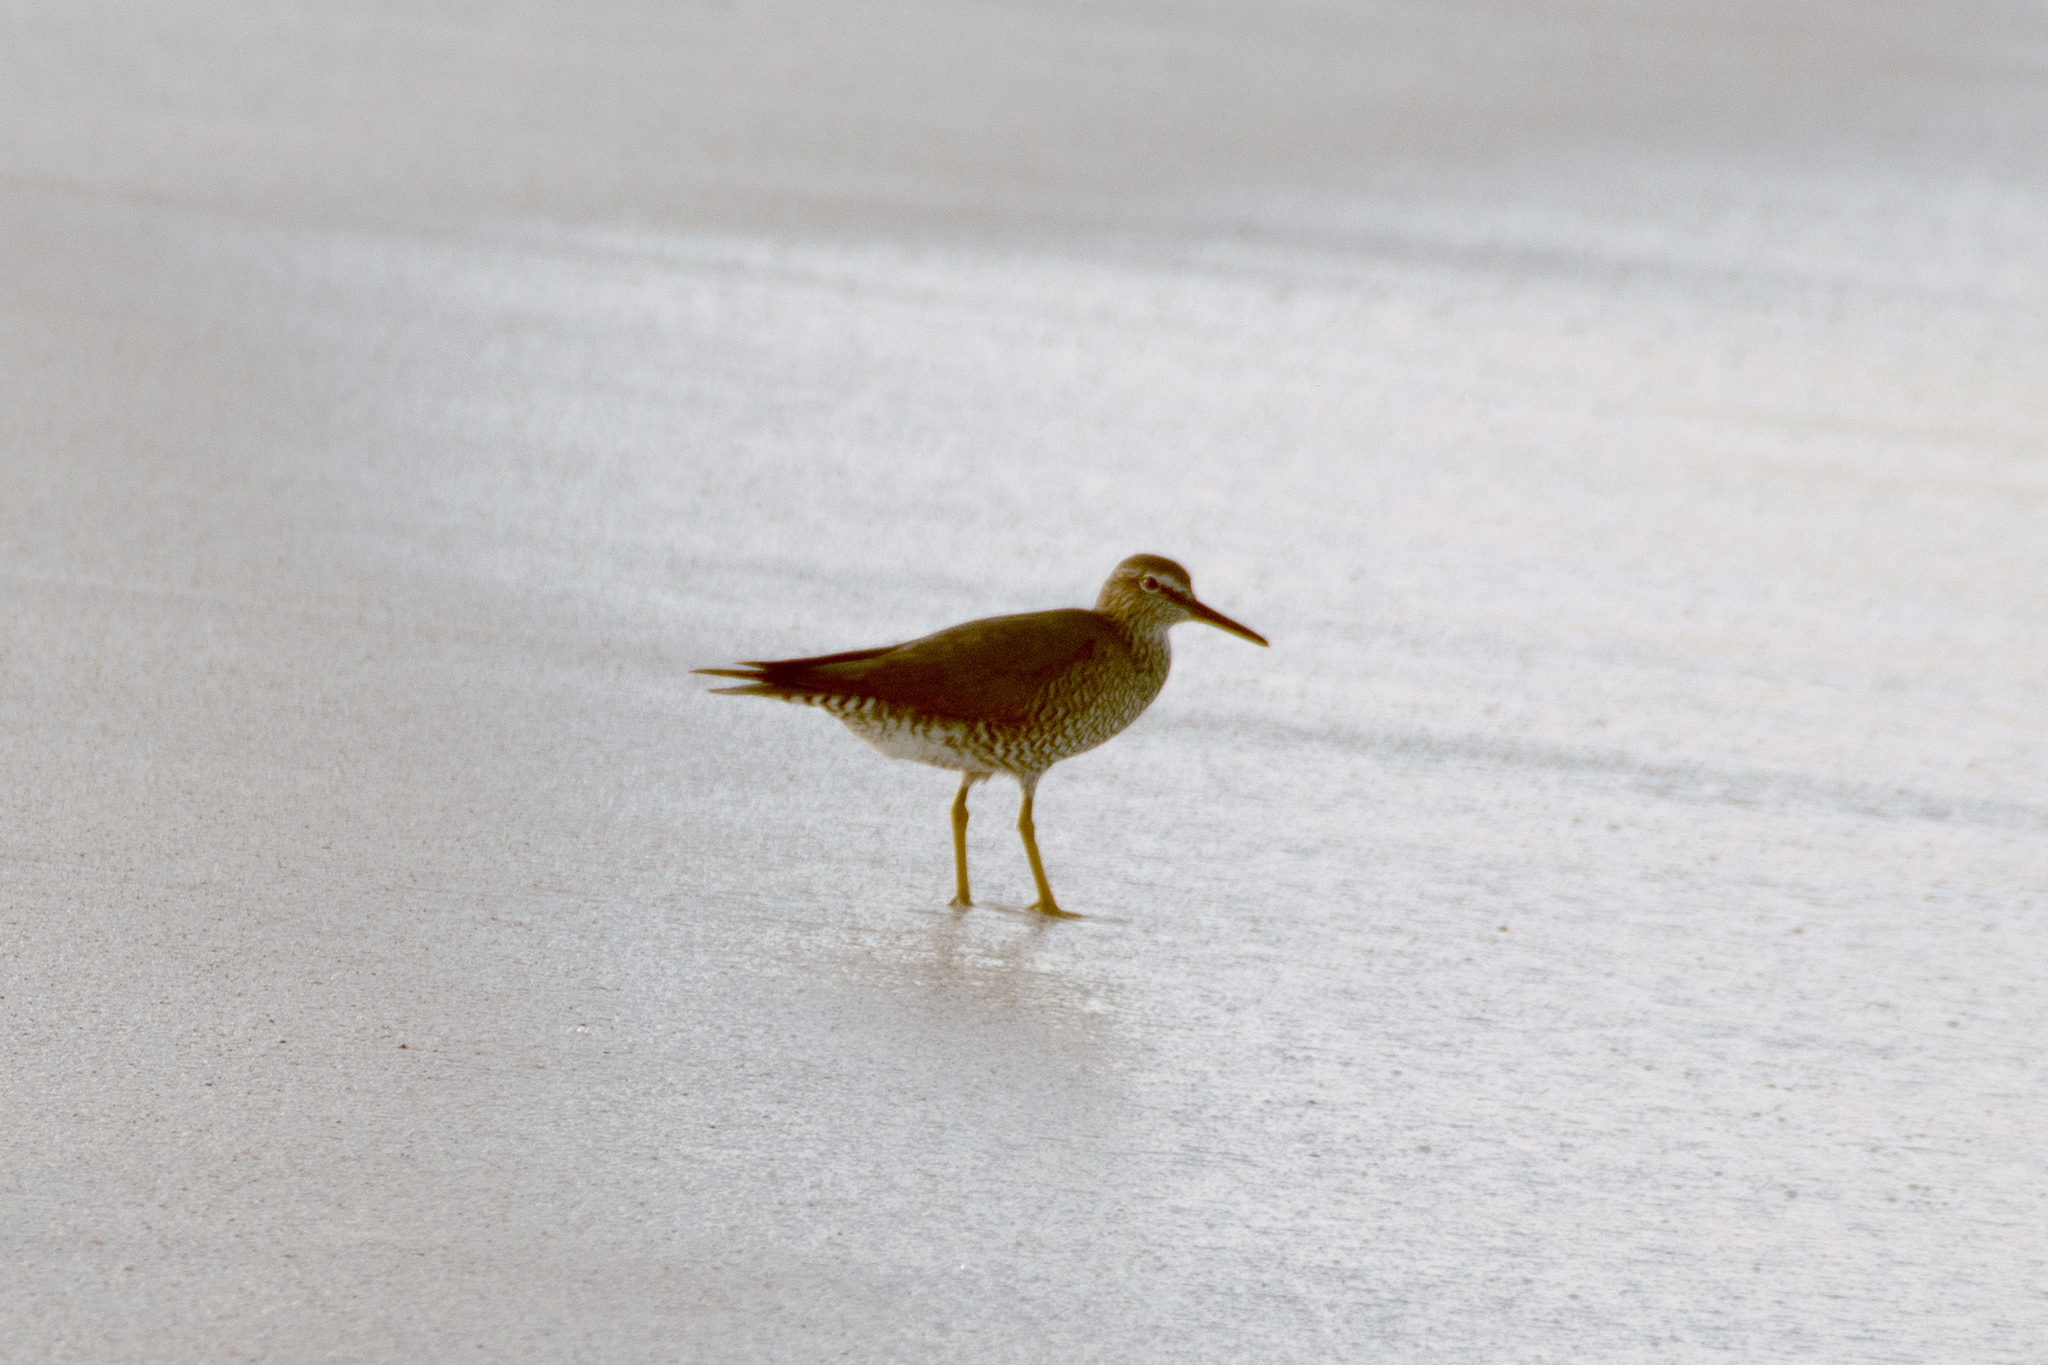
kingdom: Animalia
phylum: Chordata
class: Aves
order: Charadriiformes
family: Scolopacidae
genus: Tringa
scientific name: Tringa incana
